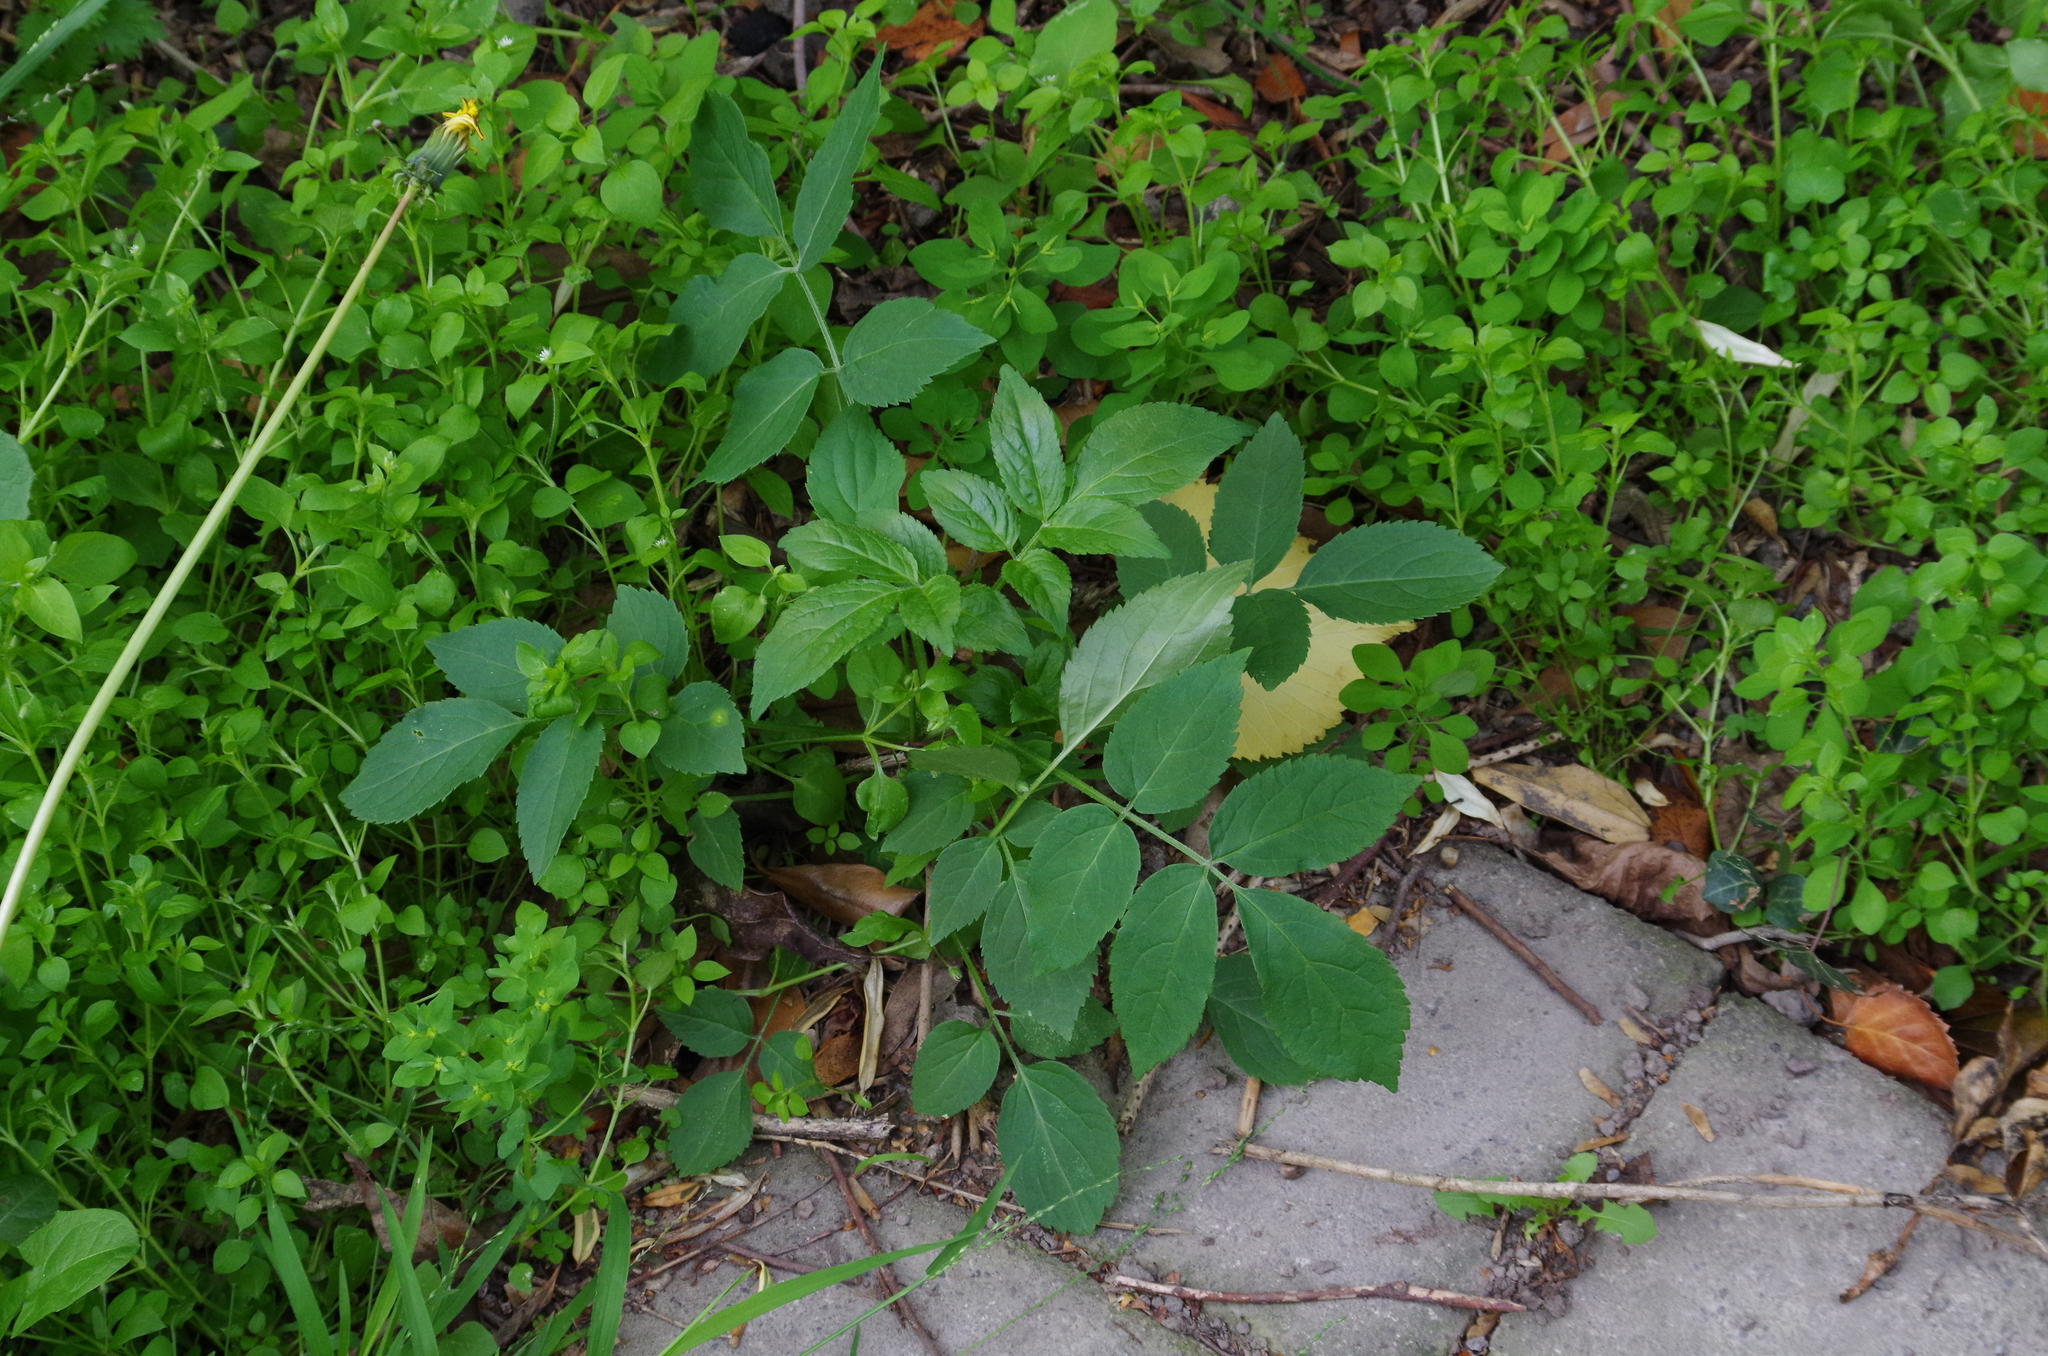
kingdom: Plantae
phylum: Tracheophyta
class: Magnoliopsida
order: Dipsacales
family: Viburnaceae
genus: Sambucus
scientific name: Sambucus nigra
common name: Elder
